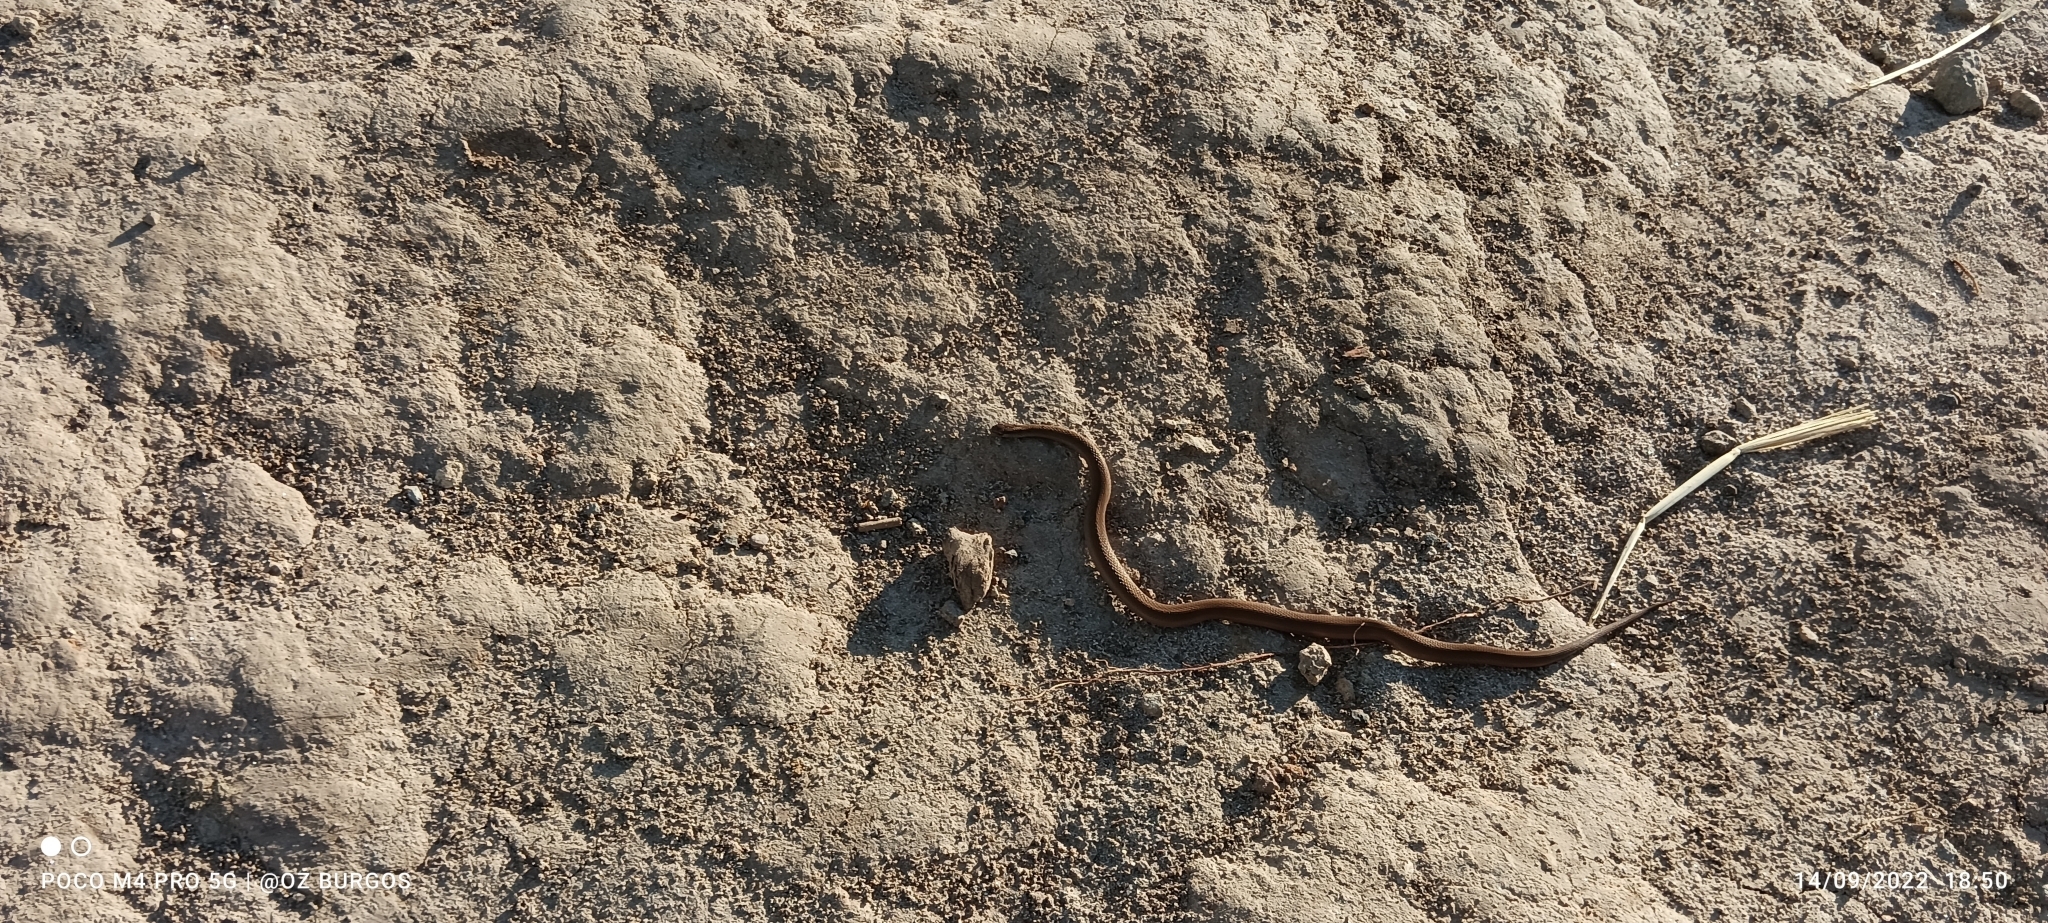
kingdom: Animalia
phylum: Chordata
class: Squamata
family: Colubridae
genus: Storeria
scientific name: Storeria storerioides
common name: Mexican brown snake
